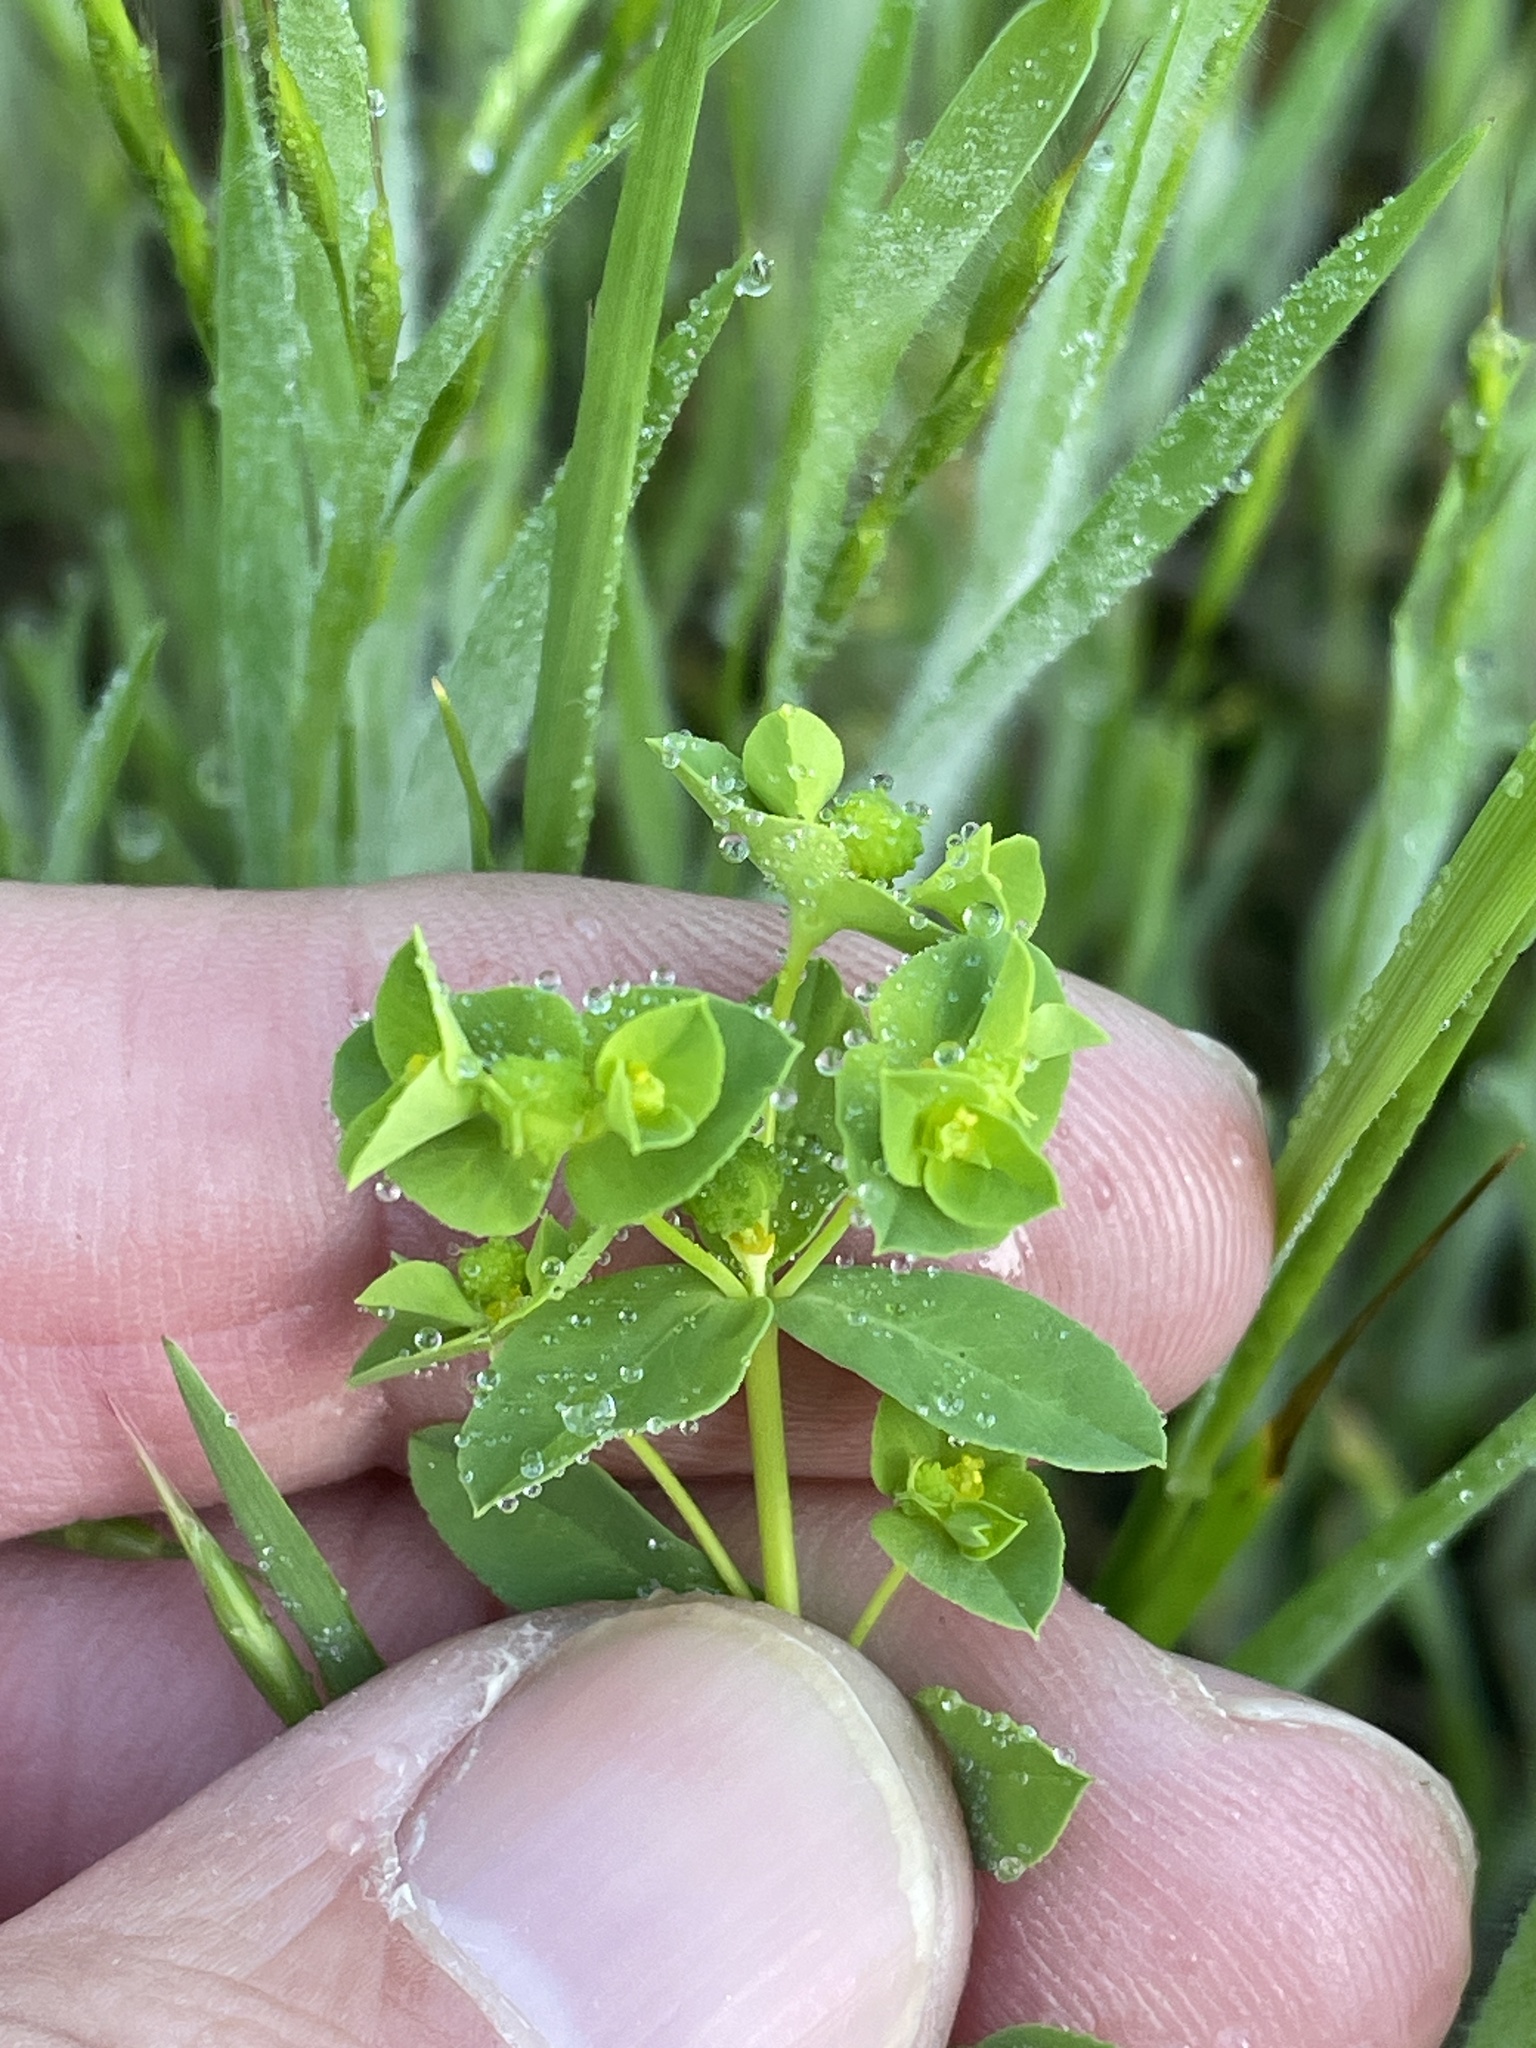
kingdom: Plantae
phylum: Tracheophyta
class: Magnoliopsida
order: Malpighiales
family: Euphorbiaceae
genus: Euphorbia
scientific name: Euphorbia spathulata
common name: Blunt spurge
